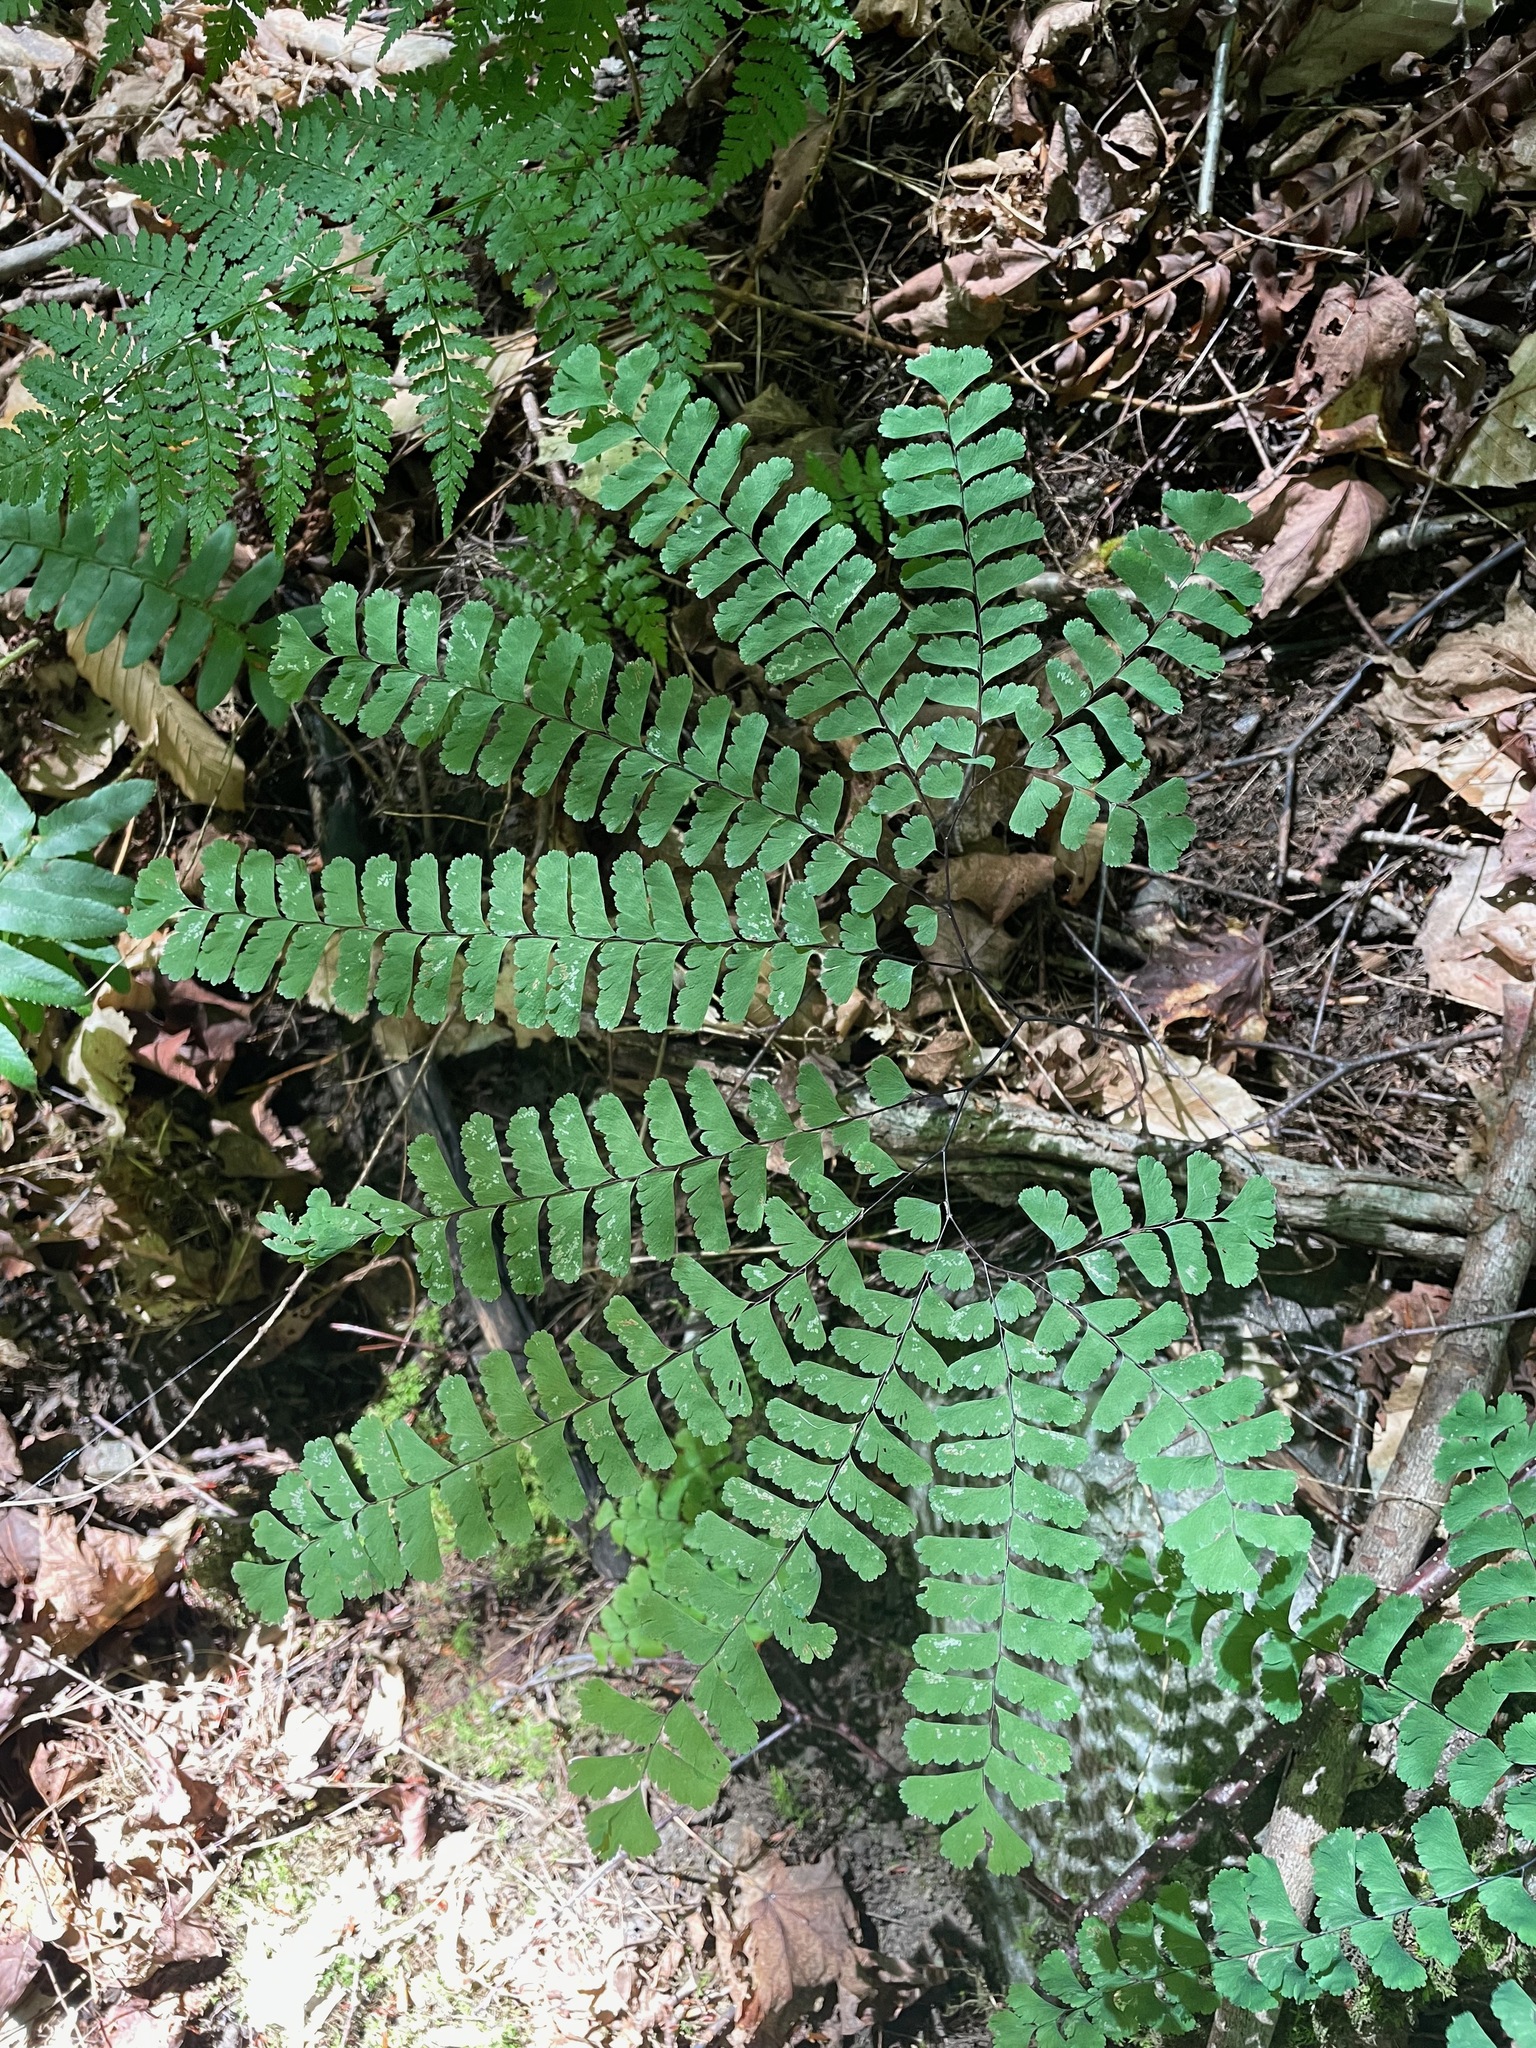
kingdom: Plantae
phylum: Tracheophyta
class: Polypodiopsida
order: Polypodiales
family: Pteridaceae
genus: Adiantum
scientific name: Adiantum pedatum
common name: Five-finger fern
